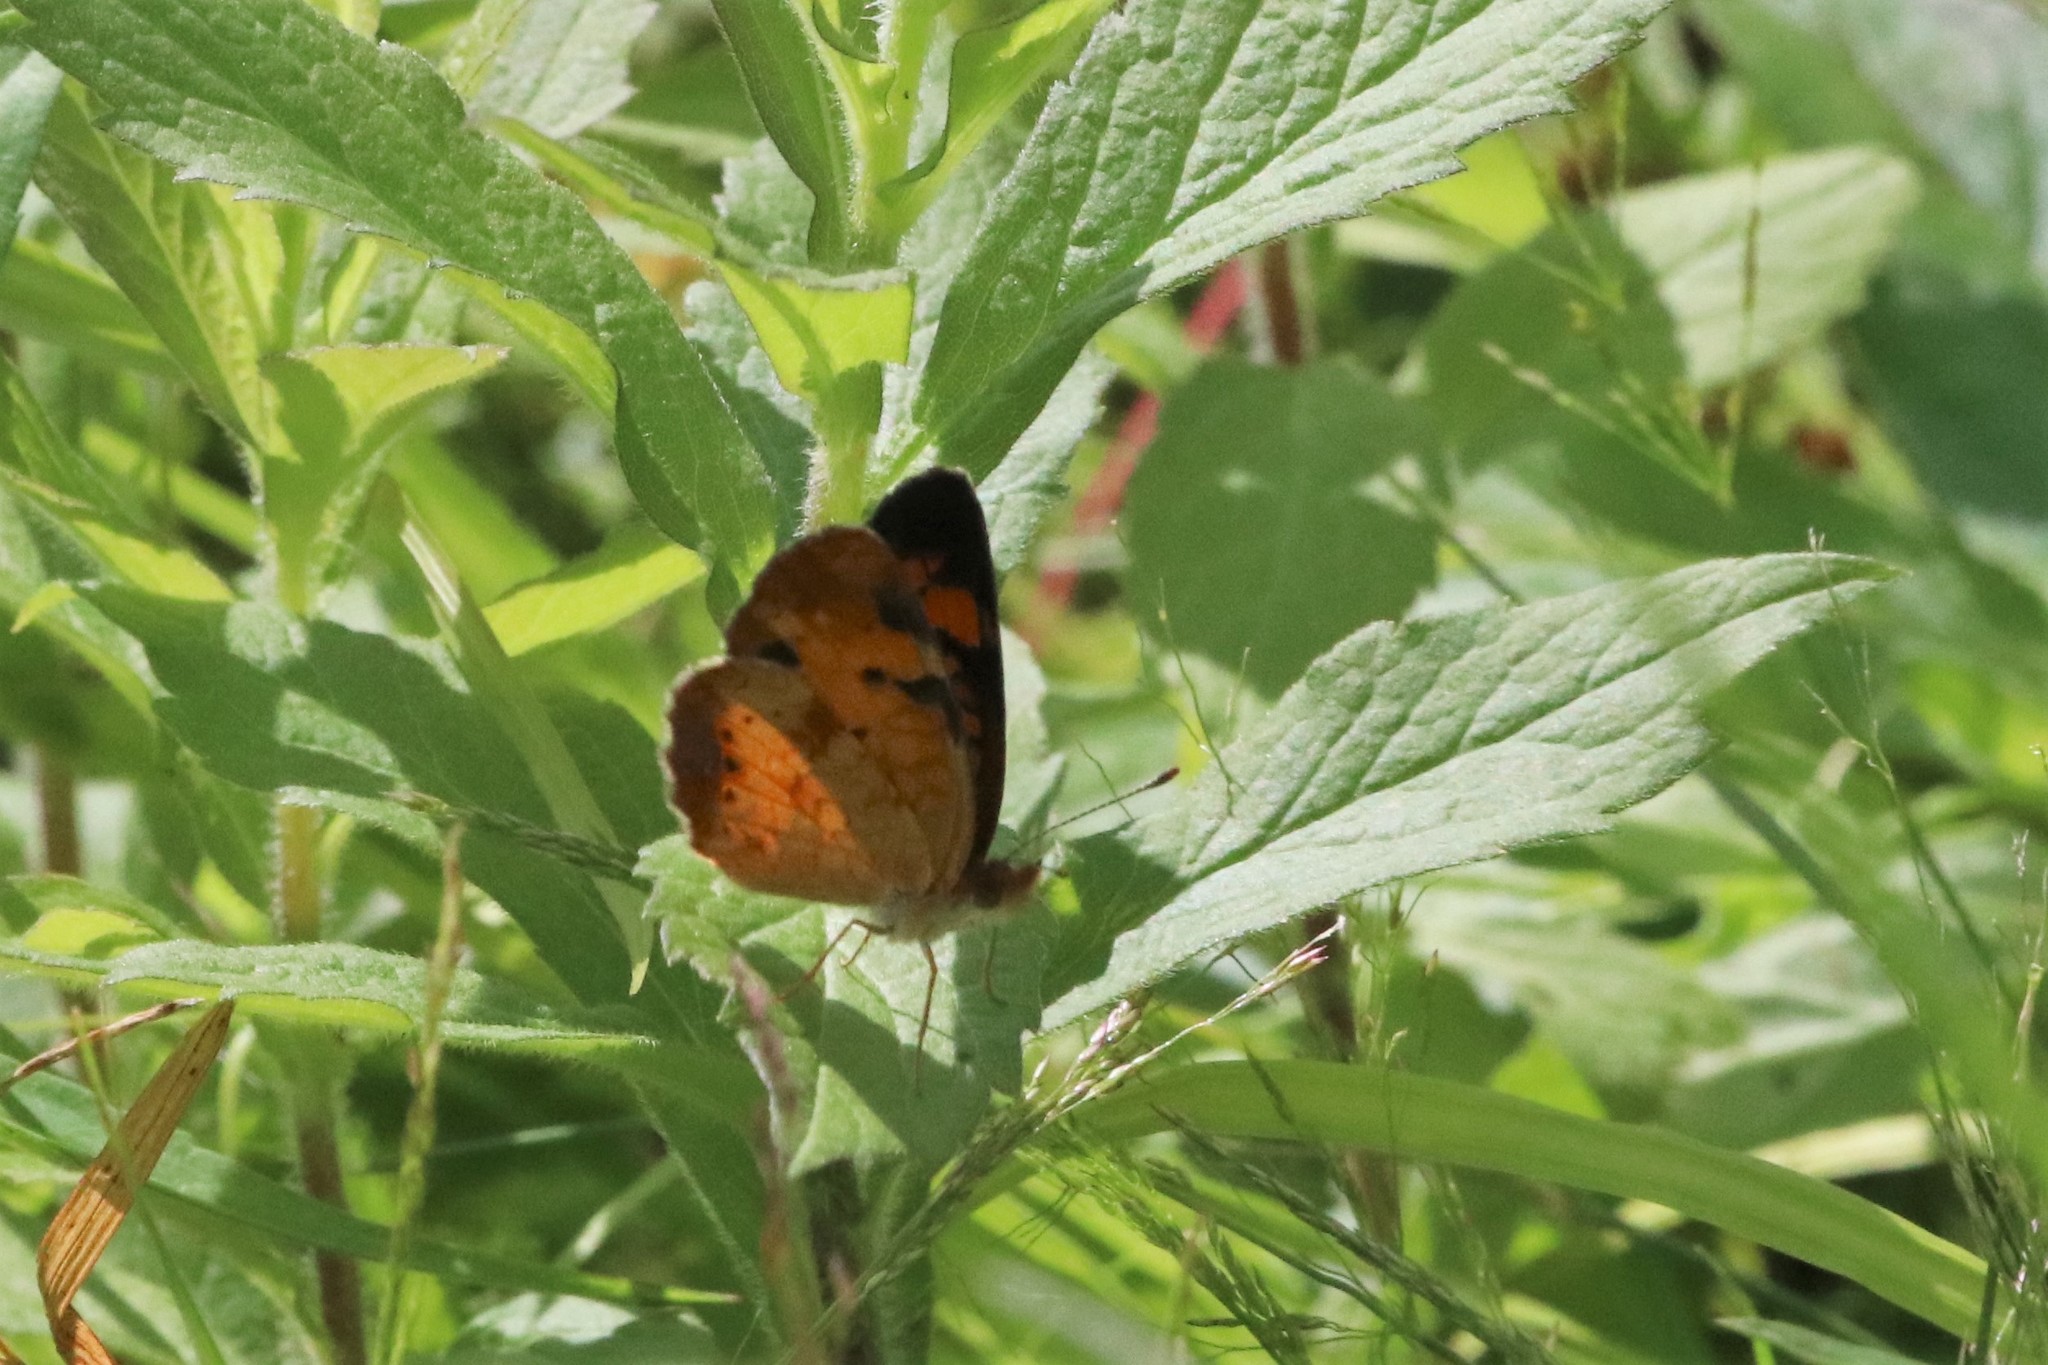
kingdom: Animalia
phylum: Arthropoda
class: Insecta
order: Lepidoptera
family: Nymphalidae
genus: Phyciodes
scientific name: Phyciodes tharos
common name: Pearl crescent
